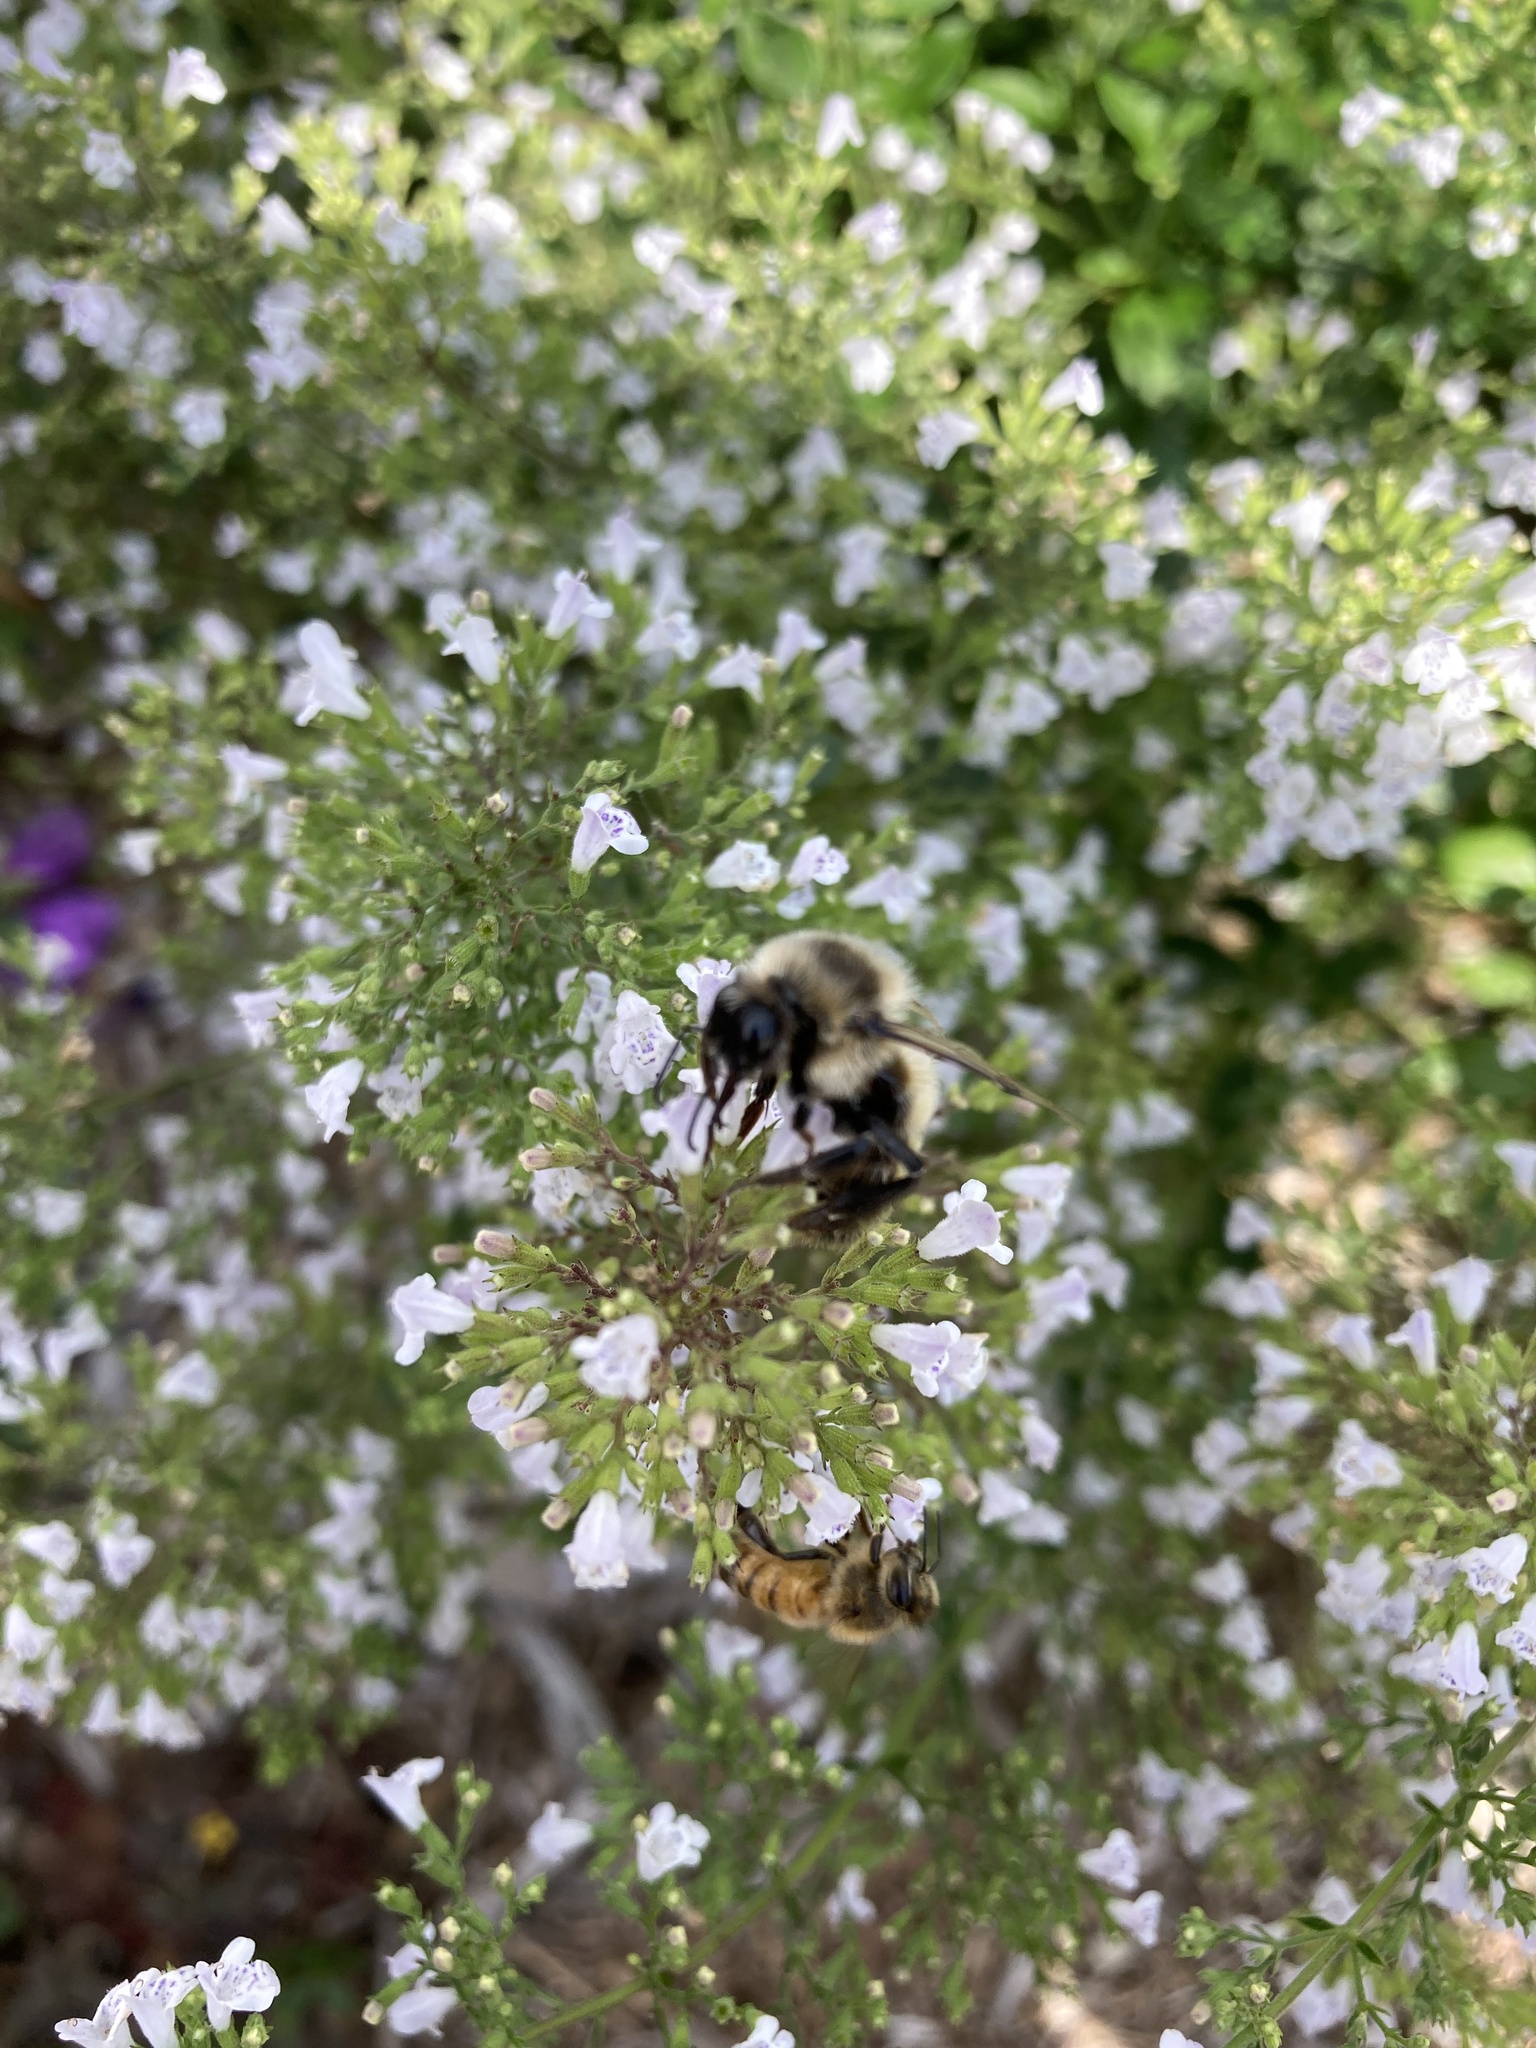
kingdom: Animalia
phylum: Arthropoda
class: Insecta
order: Hymenoptera
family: Apidae
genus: Bombus
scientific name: Bombus rufocinctus
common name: Red-belted bumble bee
